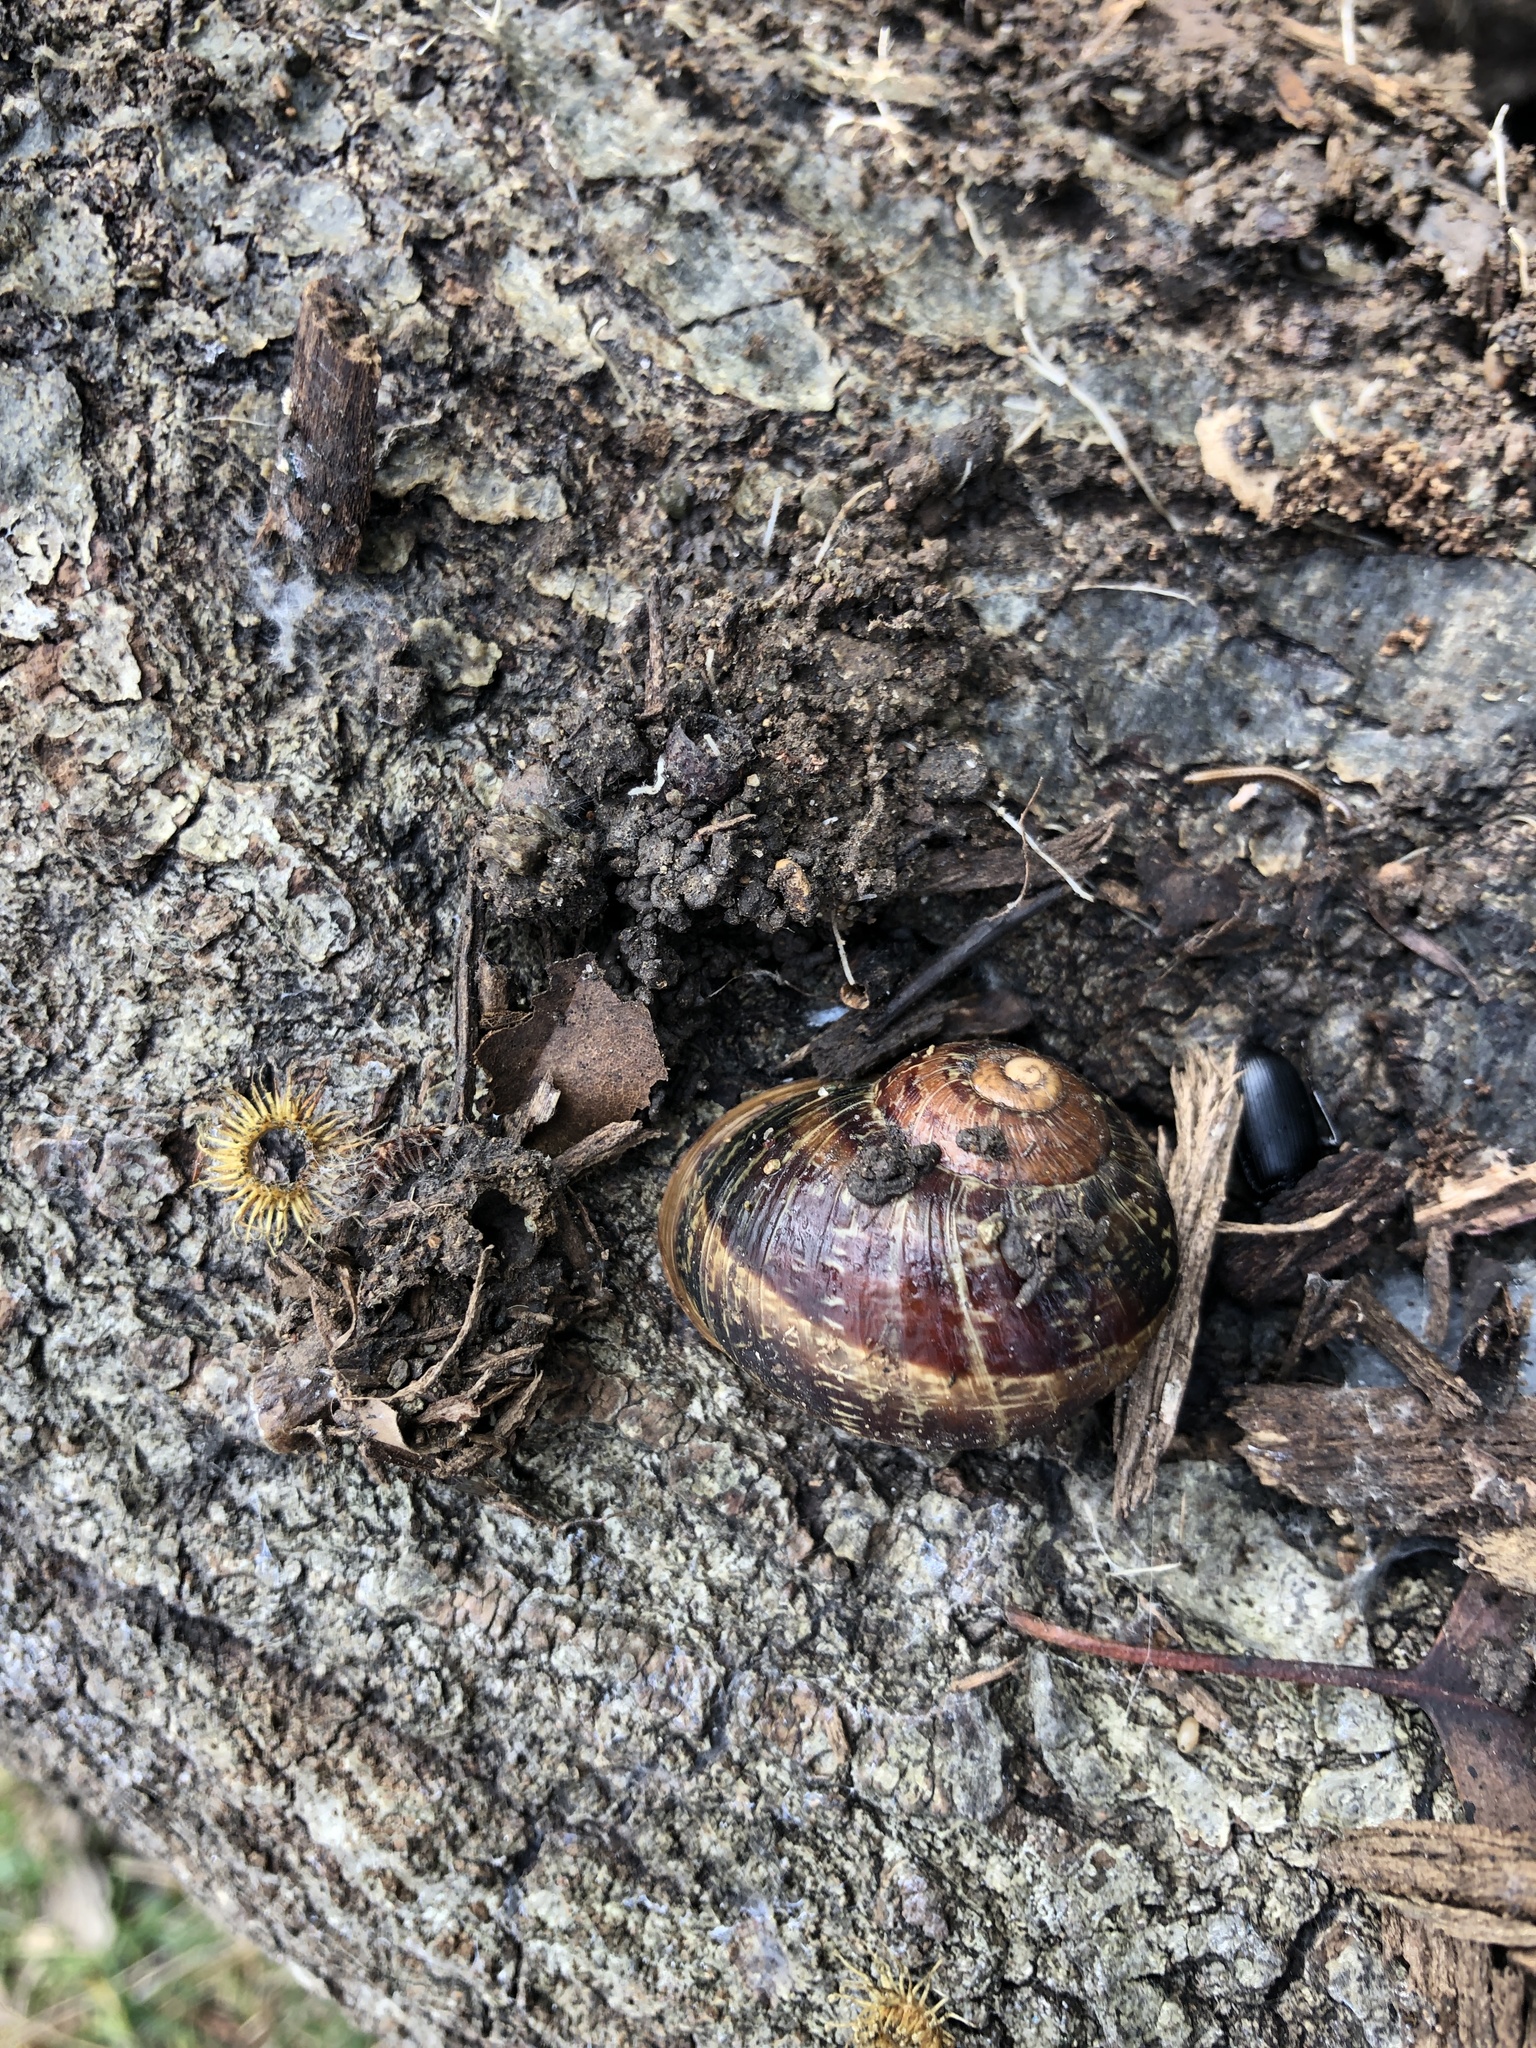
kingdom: Animalia
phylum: Mollusca
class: Gastropoda
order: Stylommatophora
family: Helicidae
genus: Cornu
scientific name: Cornu aspersum
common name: Brown garden snail
